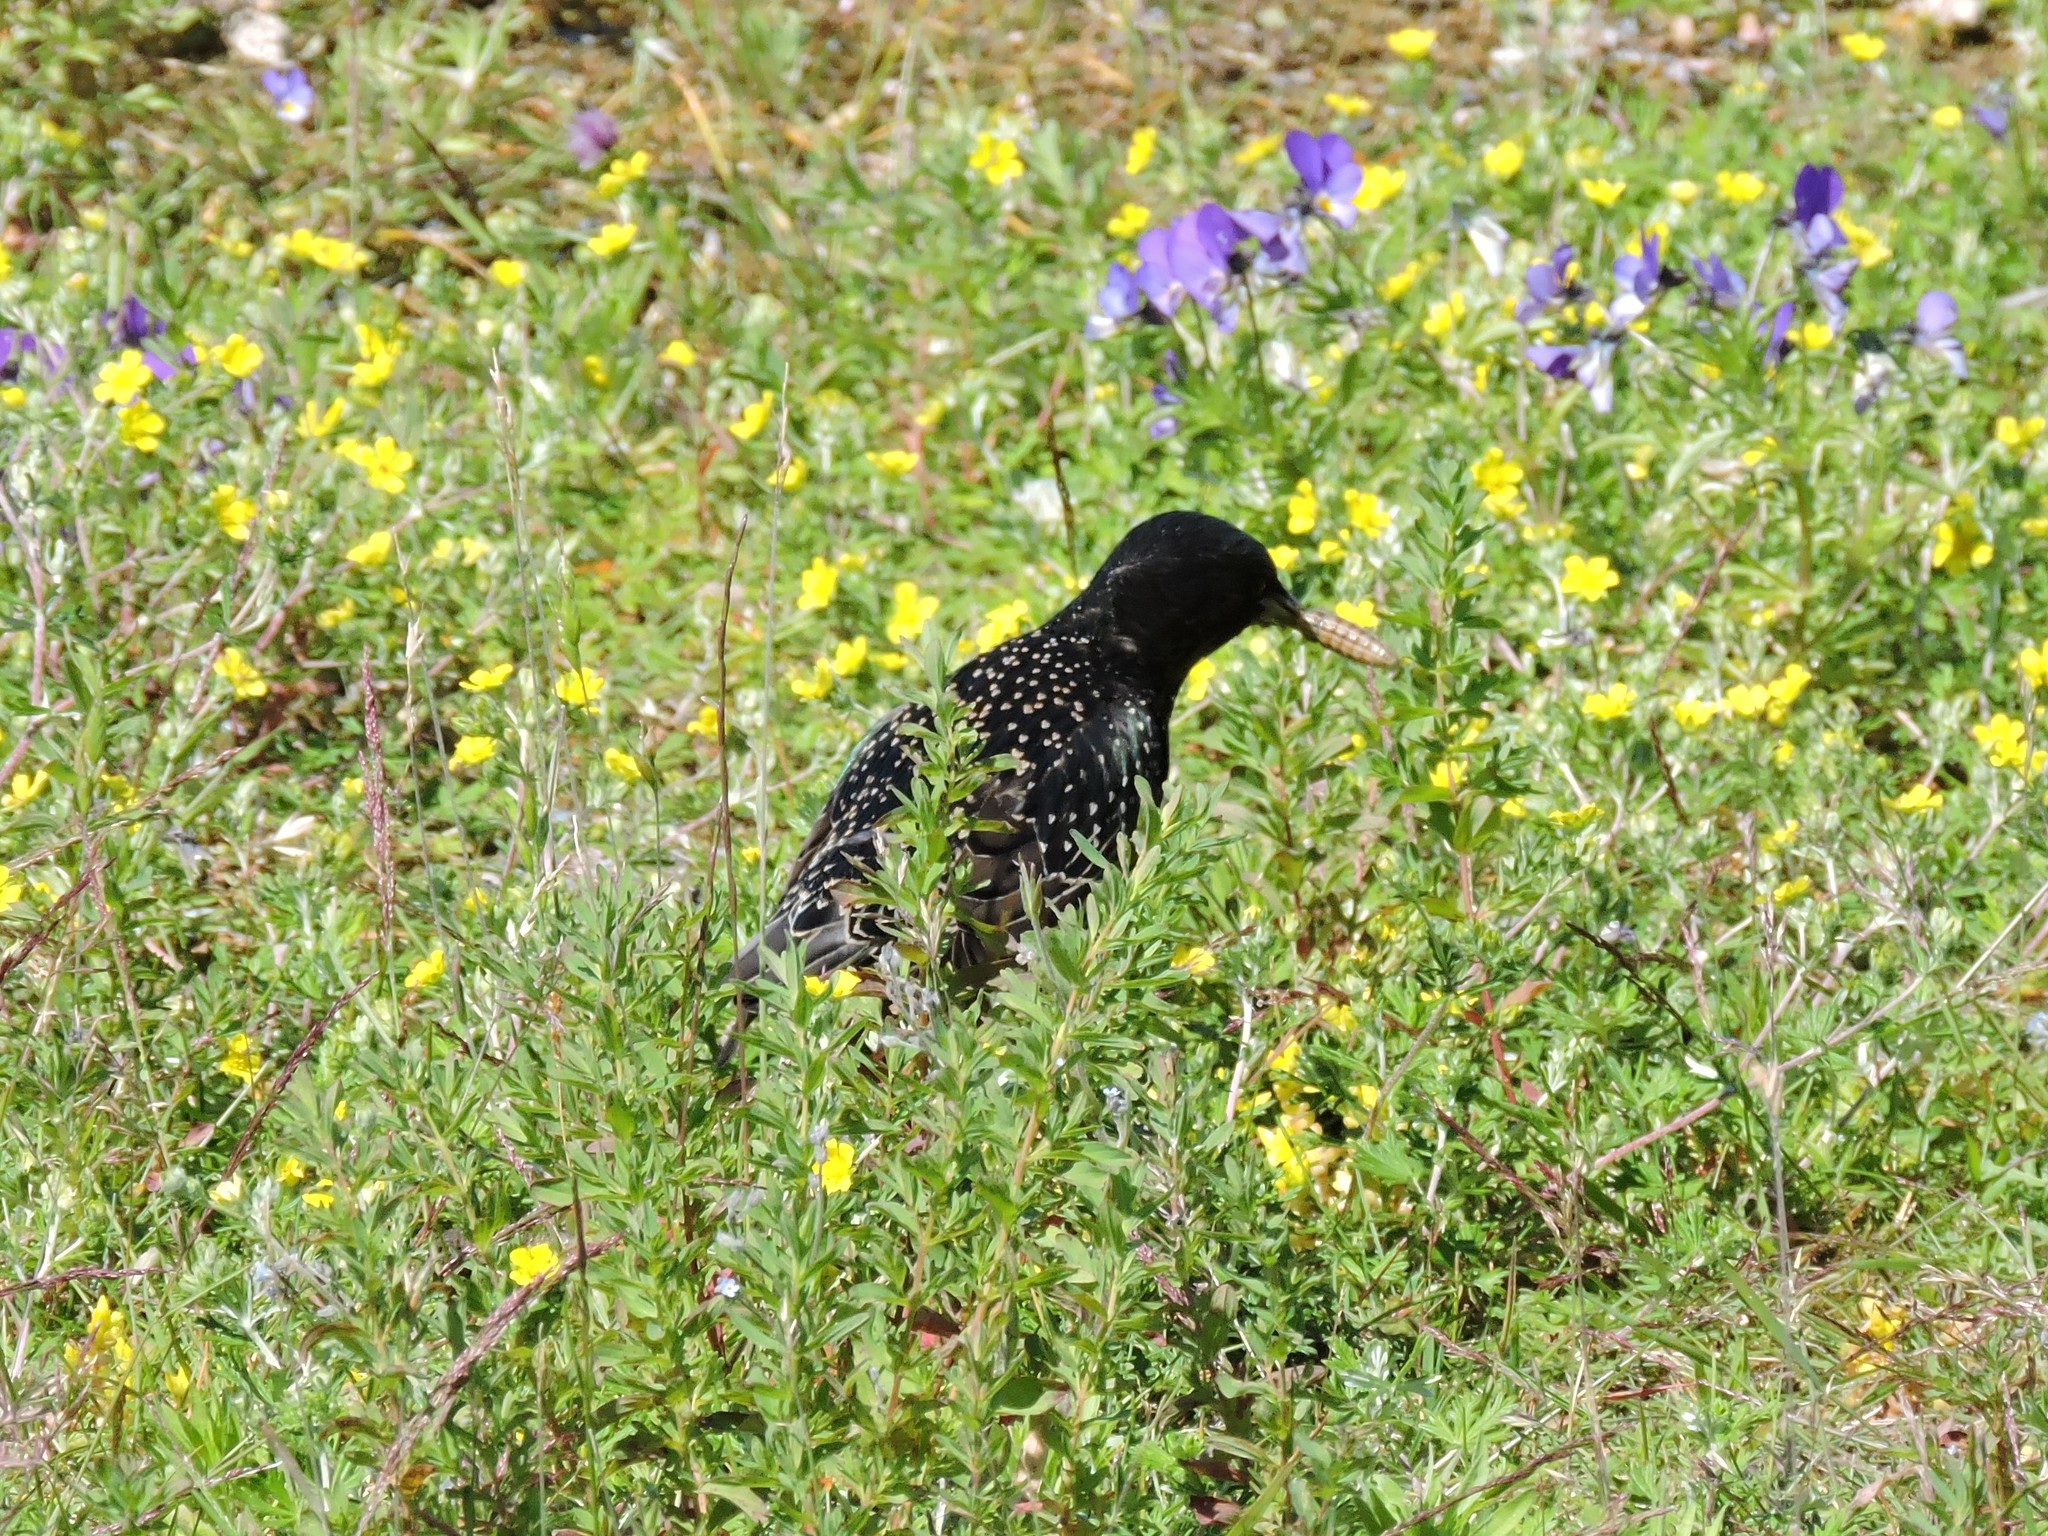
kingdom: Animalia
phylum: Chordata
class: Aves
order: Passeriformes
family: Sturnidae
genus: Sturnus
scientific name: Sturnus vulgaris
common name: Common starling
